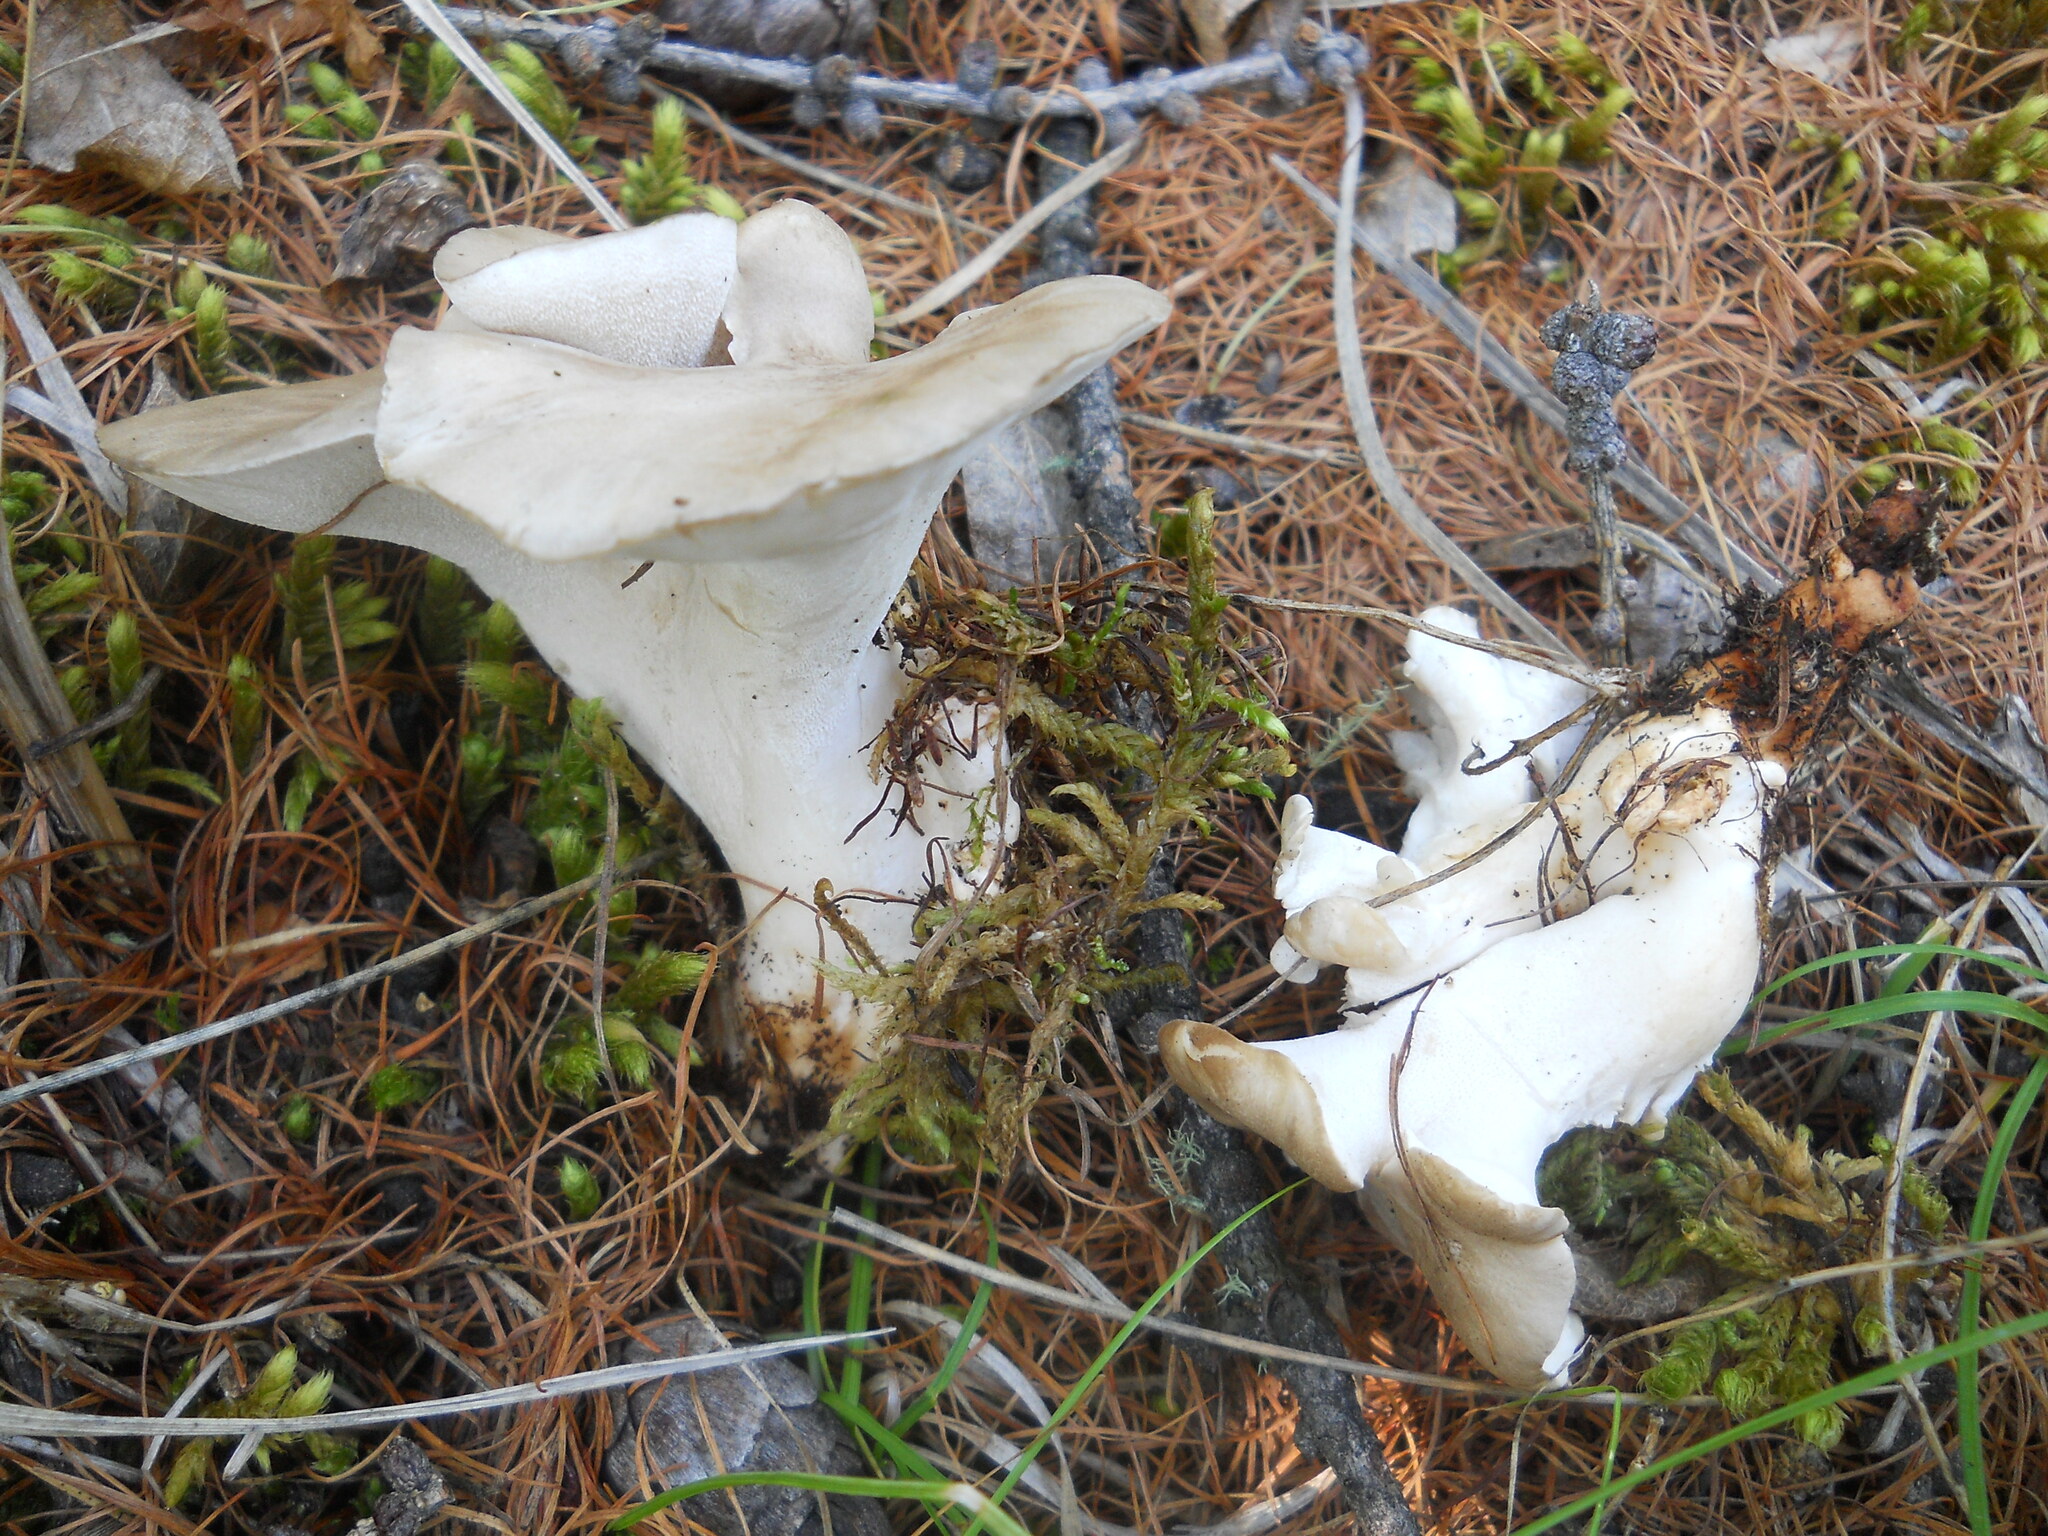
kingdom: Fungi
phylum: Basidiomycota
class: Agaricomycetes
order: Polyporales
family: Grifolaceae
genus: Grifola
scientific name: Grifola frondosa
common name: Hen of the woods
